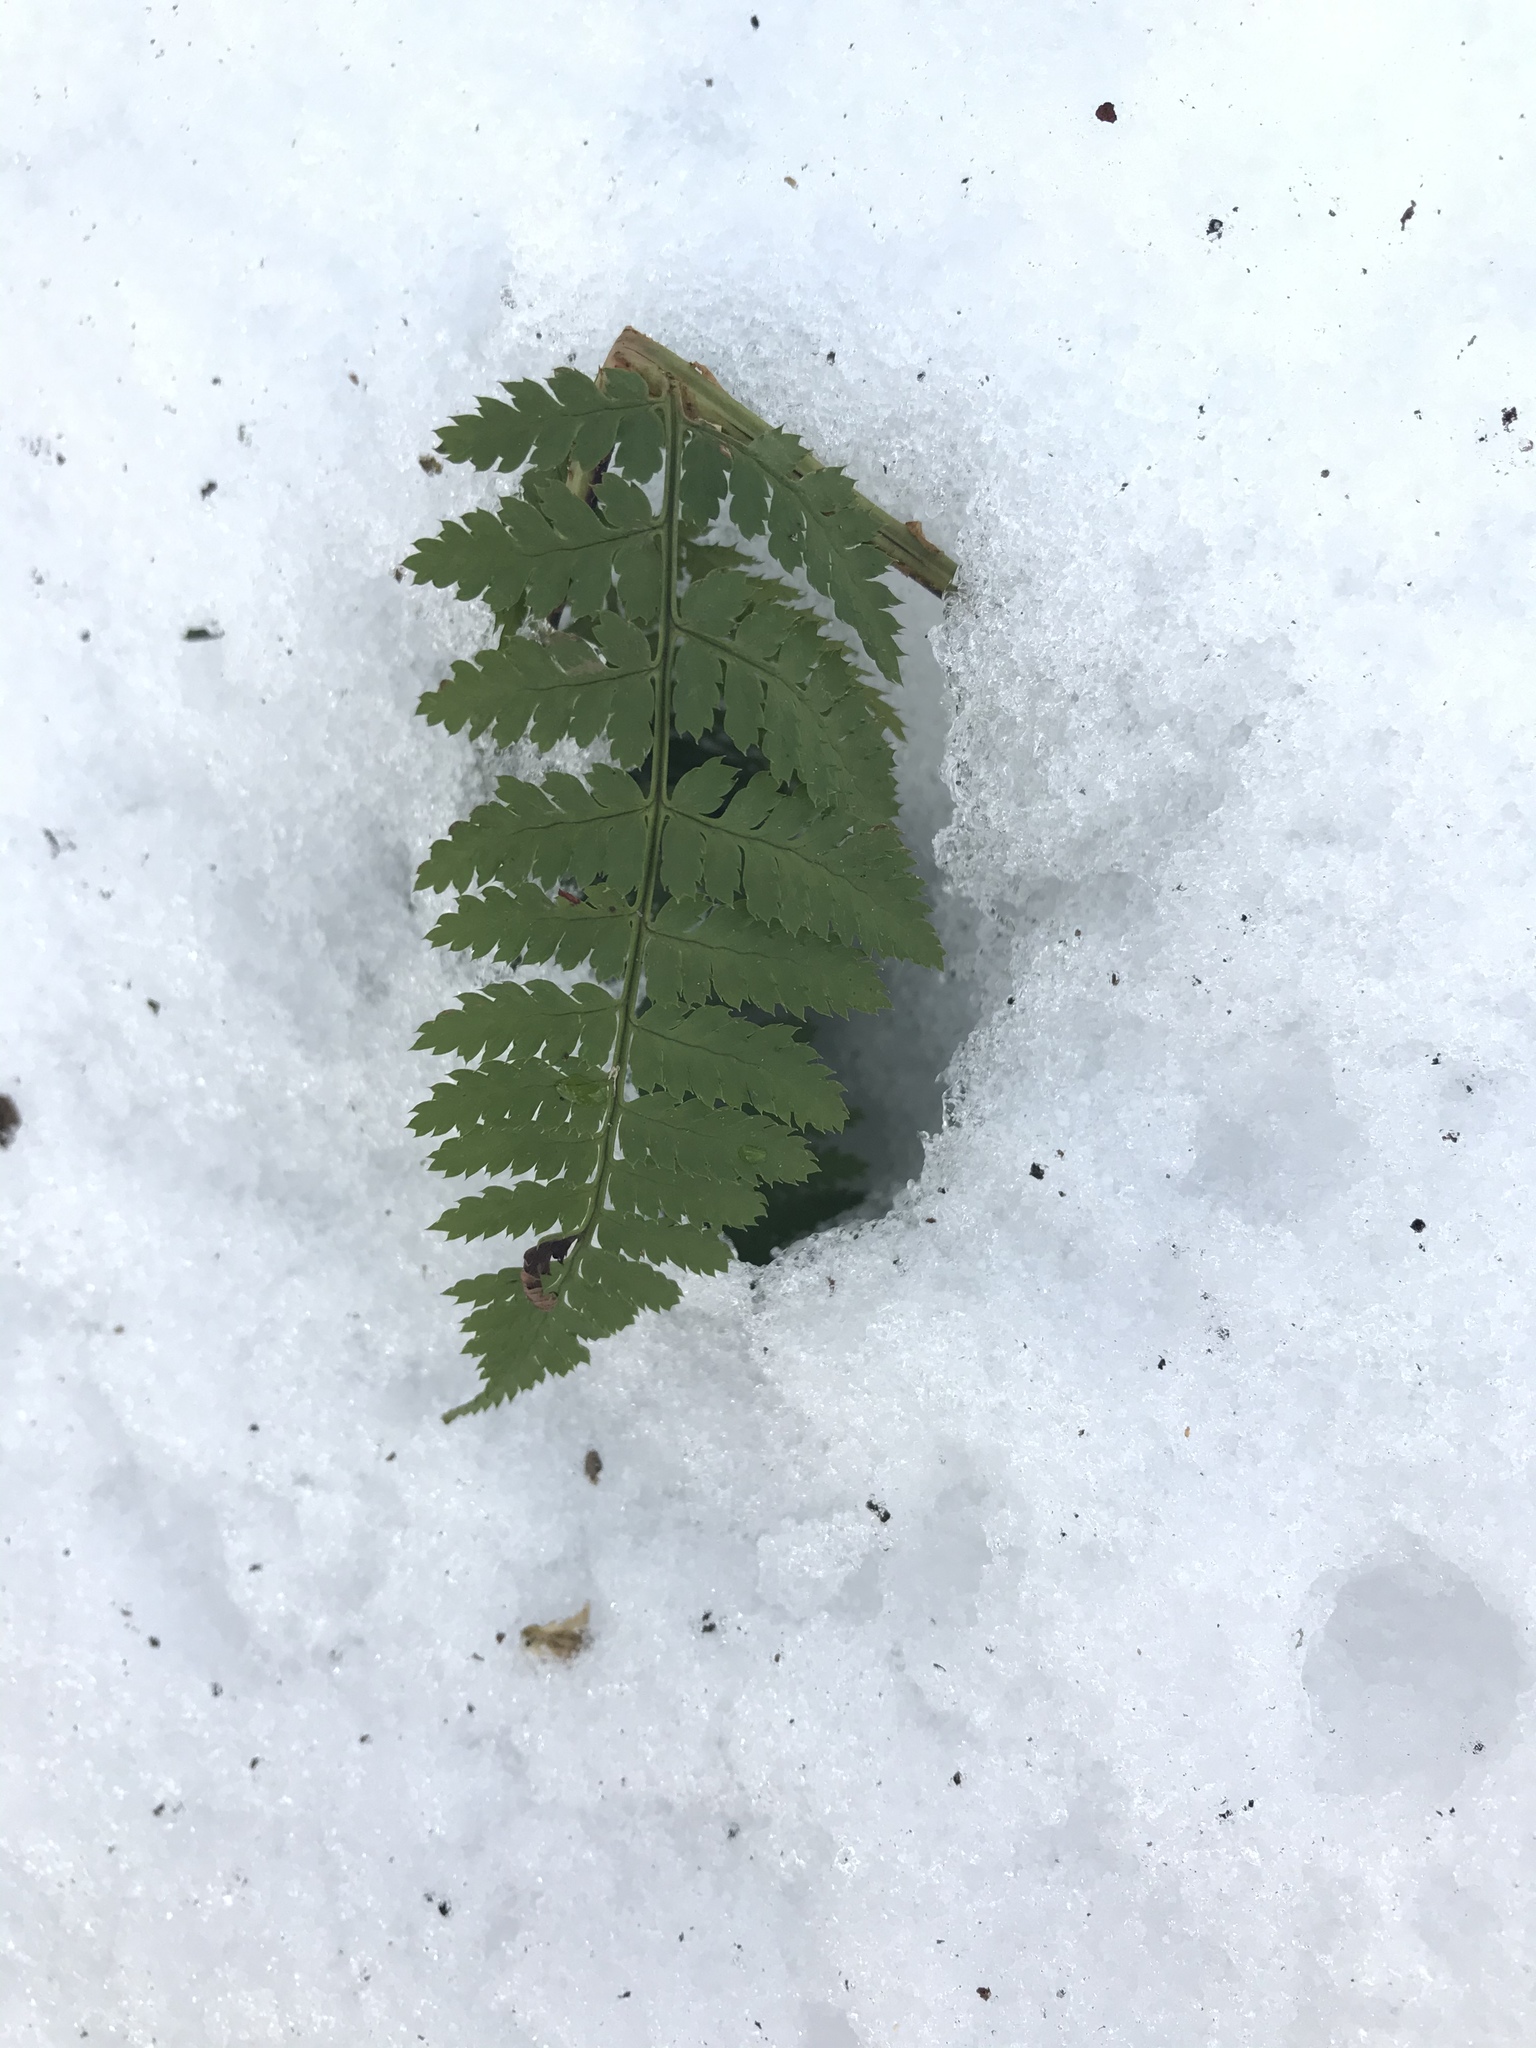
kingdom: Plantae
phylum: Tracheophyta
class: Polypodiopsida
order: Polypodiales
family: Dryopteridaceae
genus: Dryopteris
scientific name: Dryopteris intermedia
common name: Evergreen wood fern
